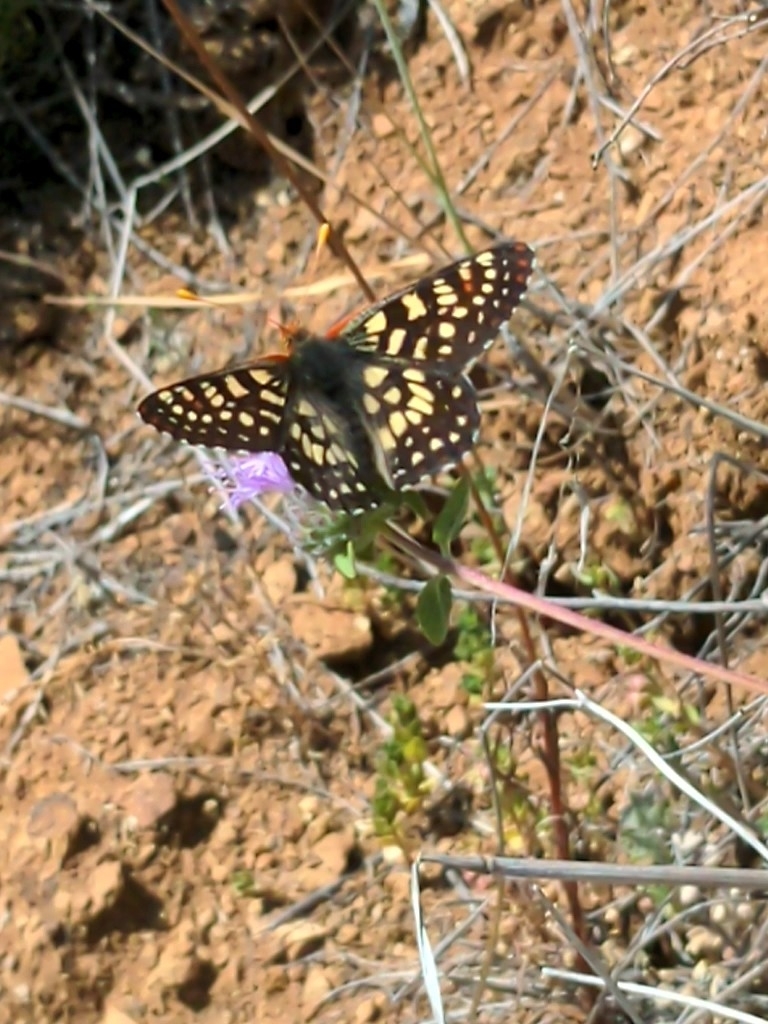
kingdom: Animalia
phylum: Arthropoda
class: Insecta
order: Lepidoptera
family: Nymphalidae
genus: Occidryas
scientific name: Occidryas chalcedona
